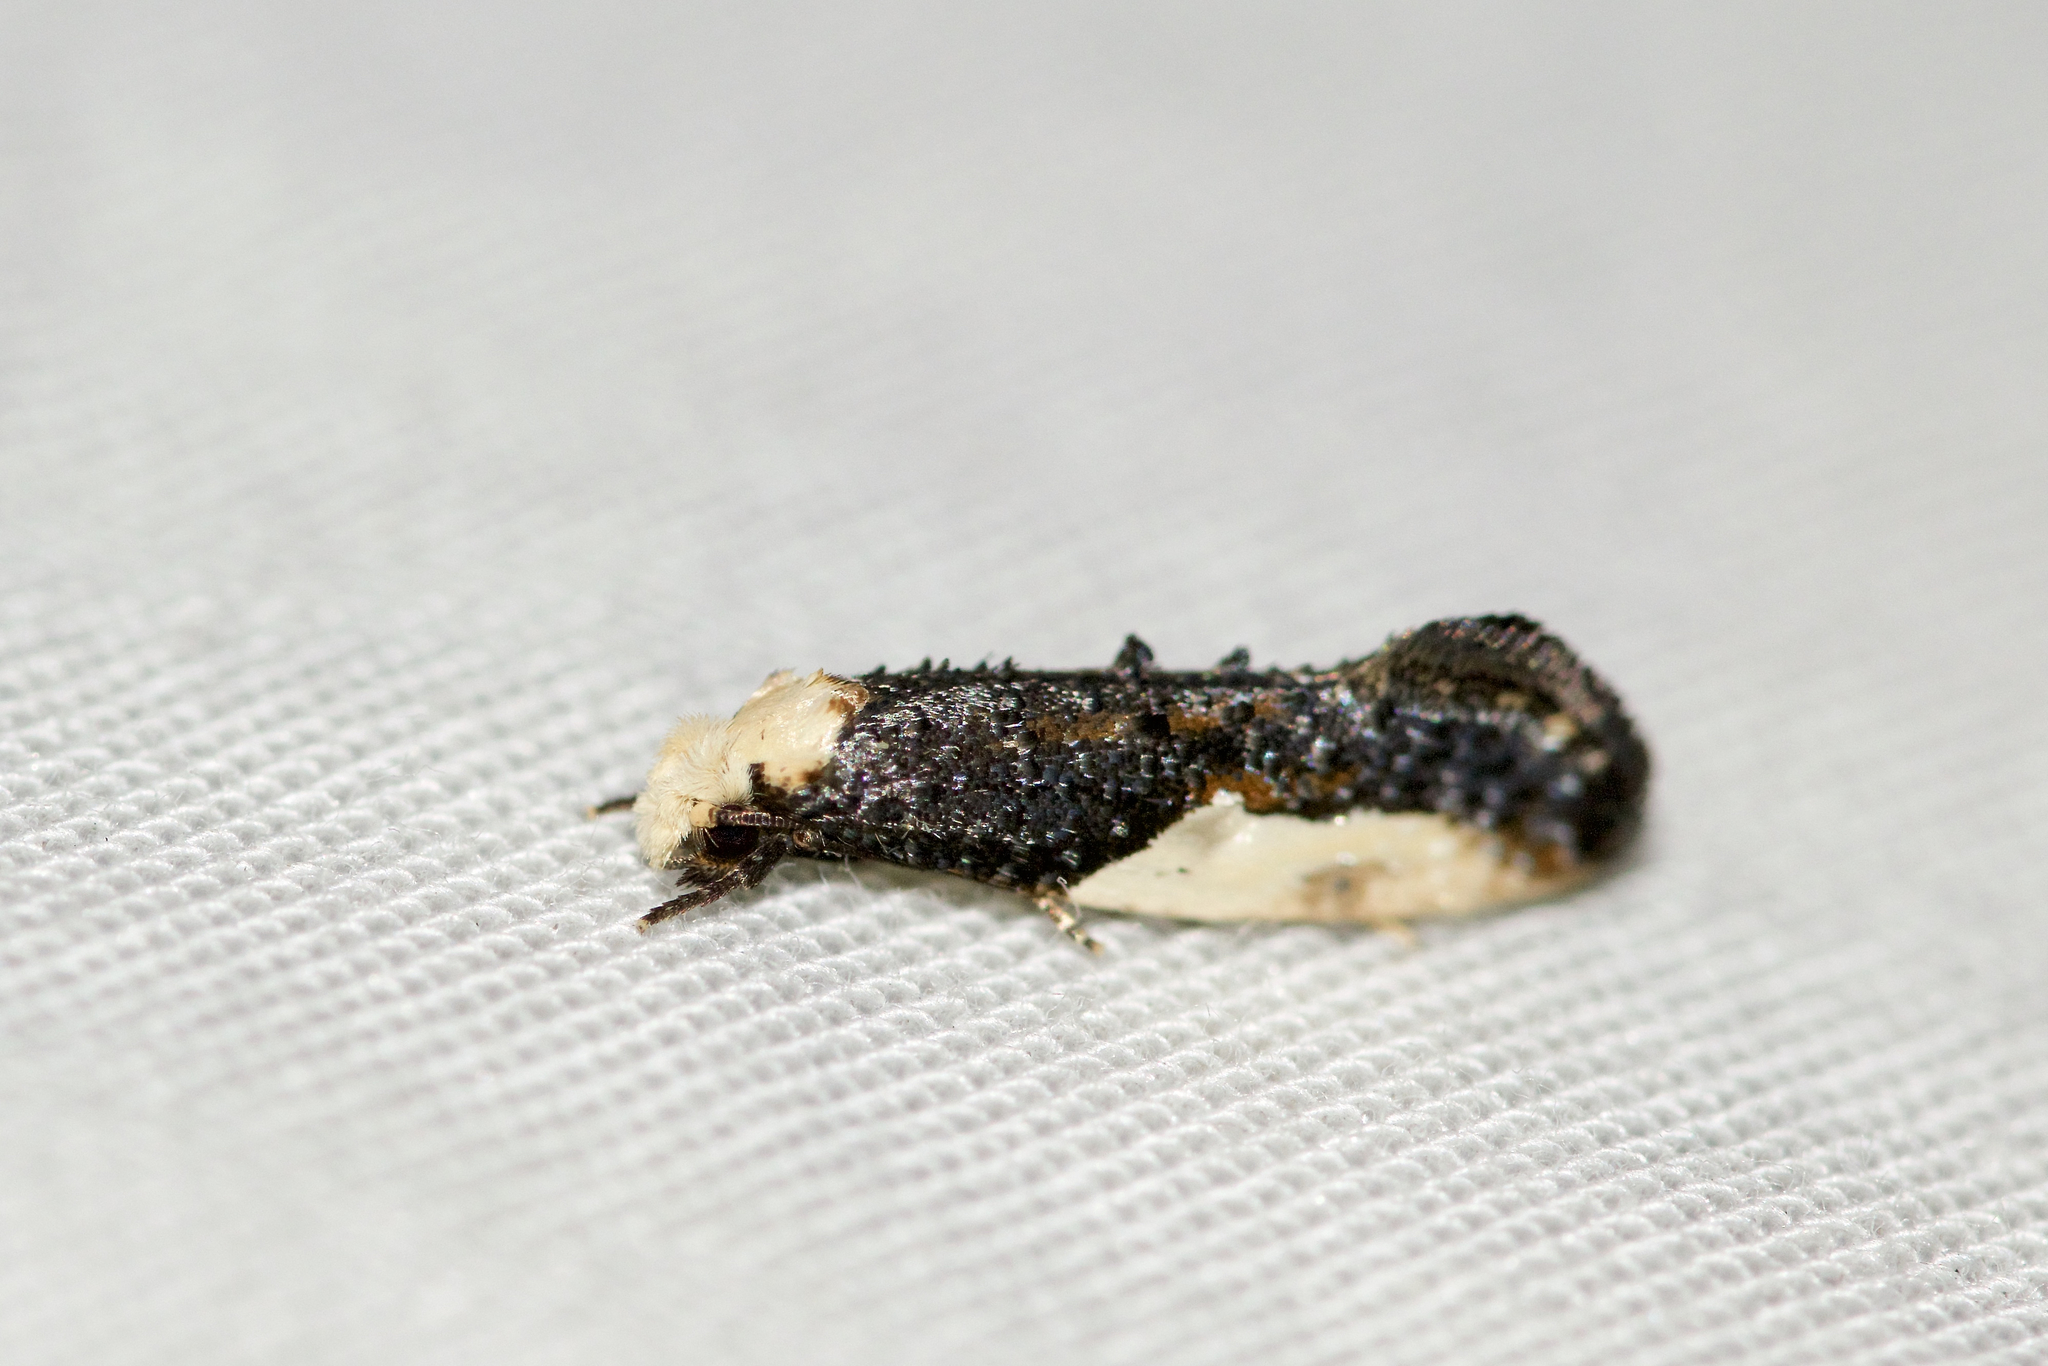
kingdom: Animalia
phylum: Arthropoda
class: Insecta
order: Lepidoptera
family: Tineidae
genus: Monopis
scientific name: Monopis longella
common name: Pavlovski's monopis moth
